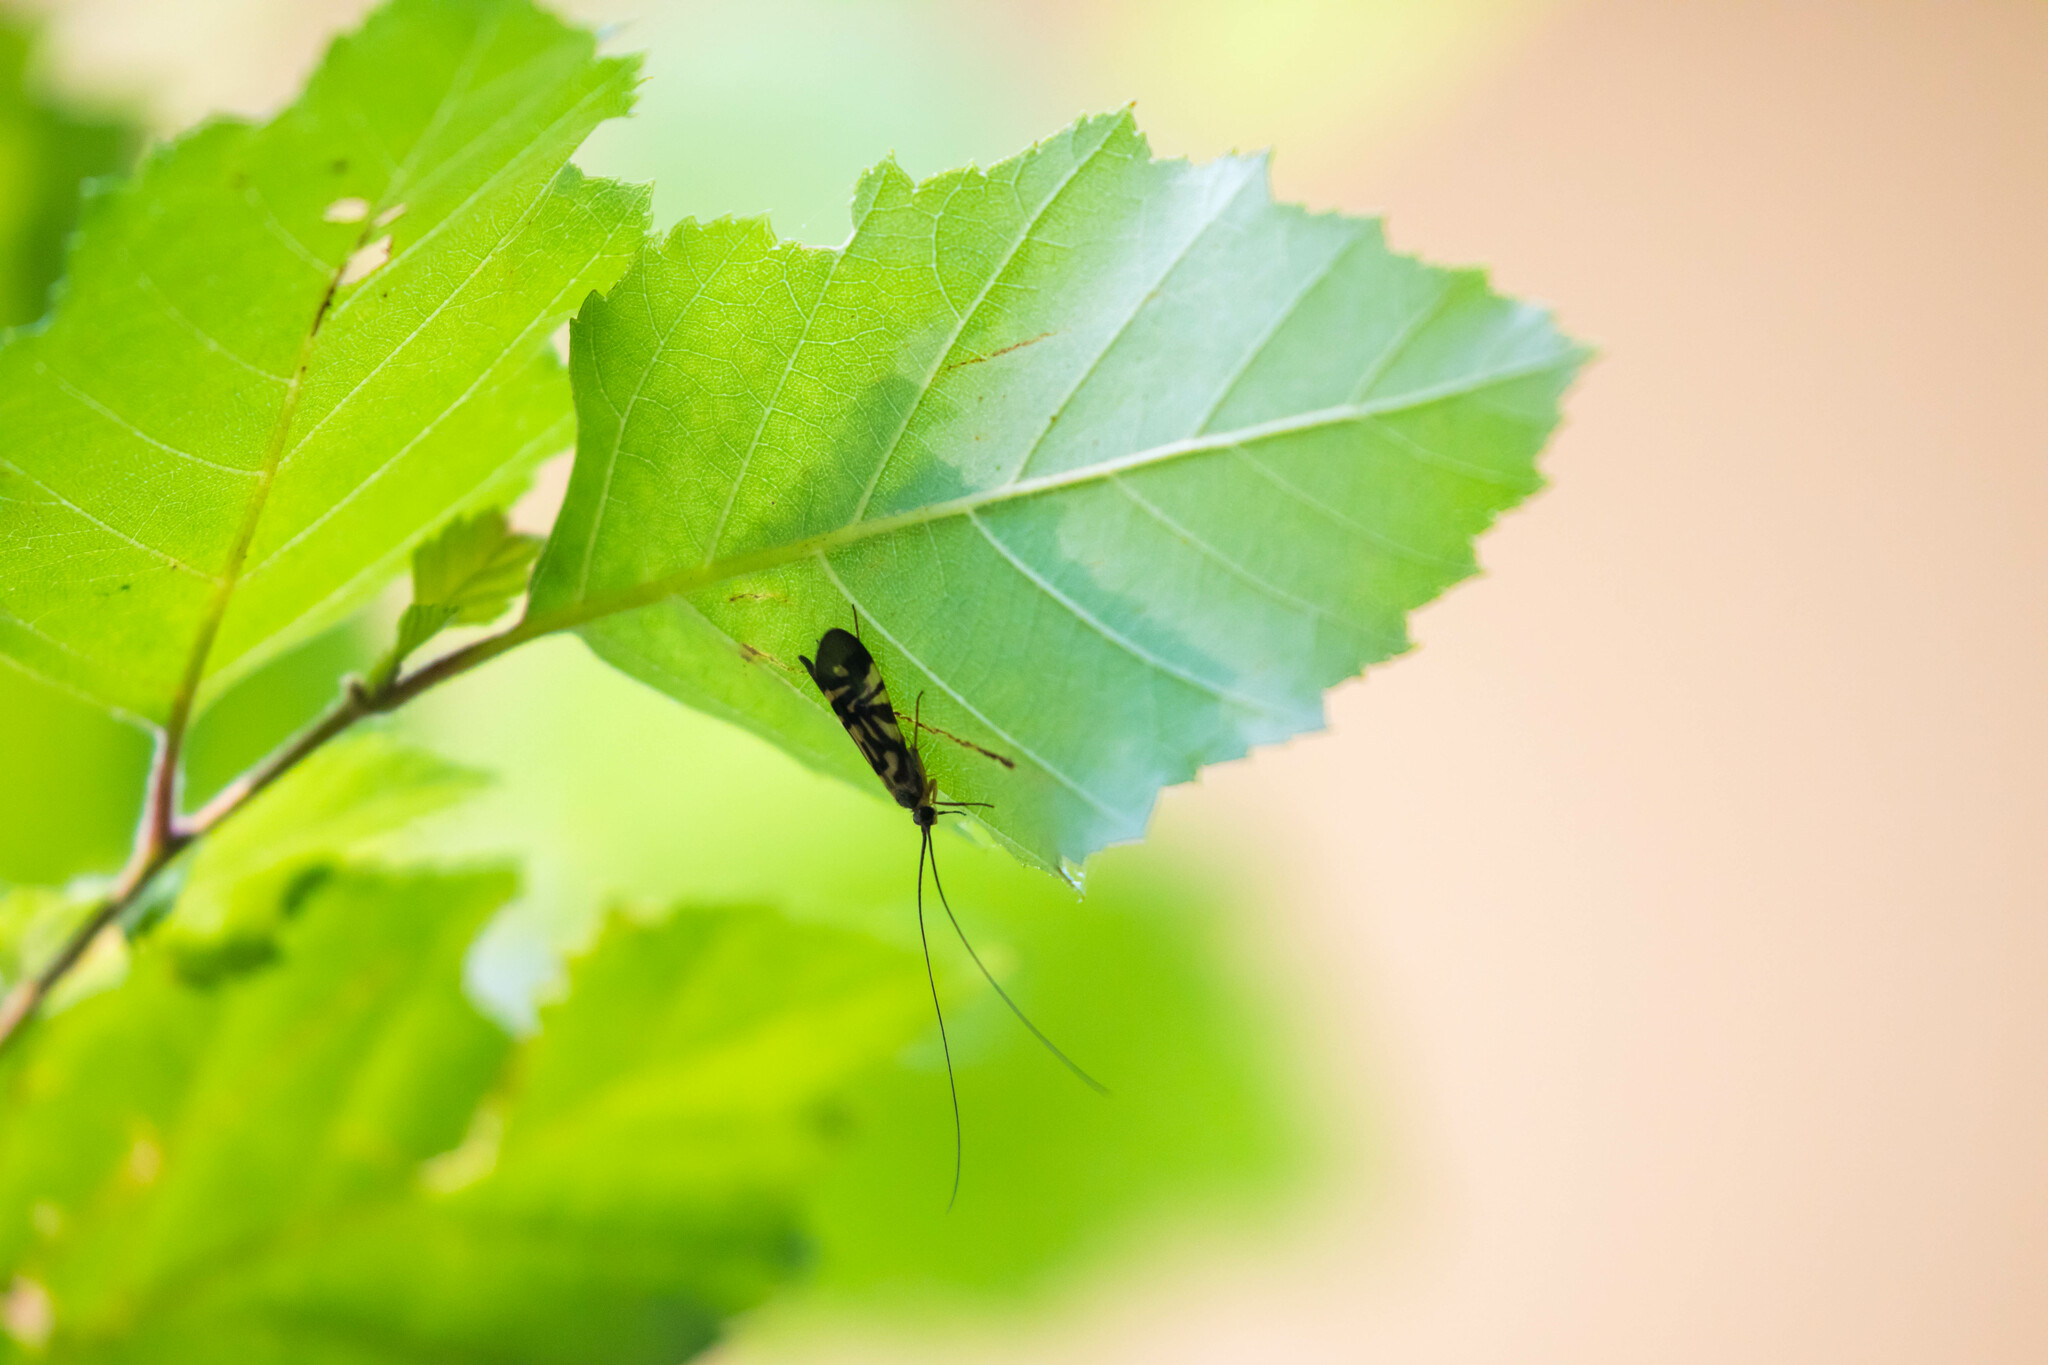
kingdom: Animalia
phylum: Arthropoda
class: Insecta
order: Trichoptera
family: Hydropsychidae
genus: Macrostemum
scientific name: Macrostemum zebratum
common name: Zebra caddisfly
